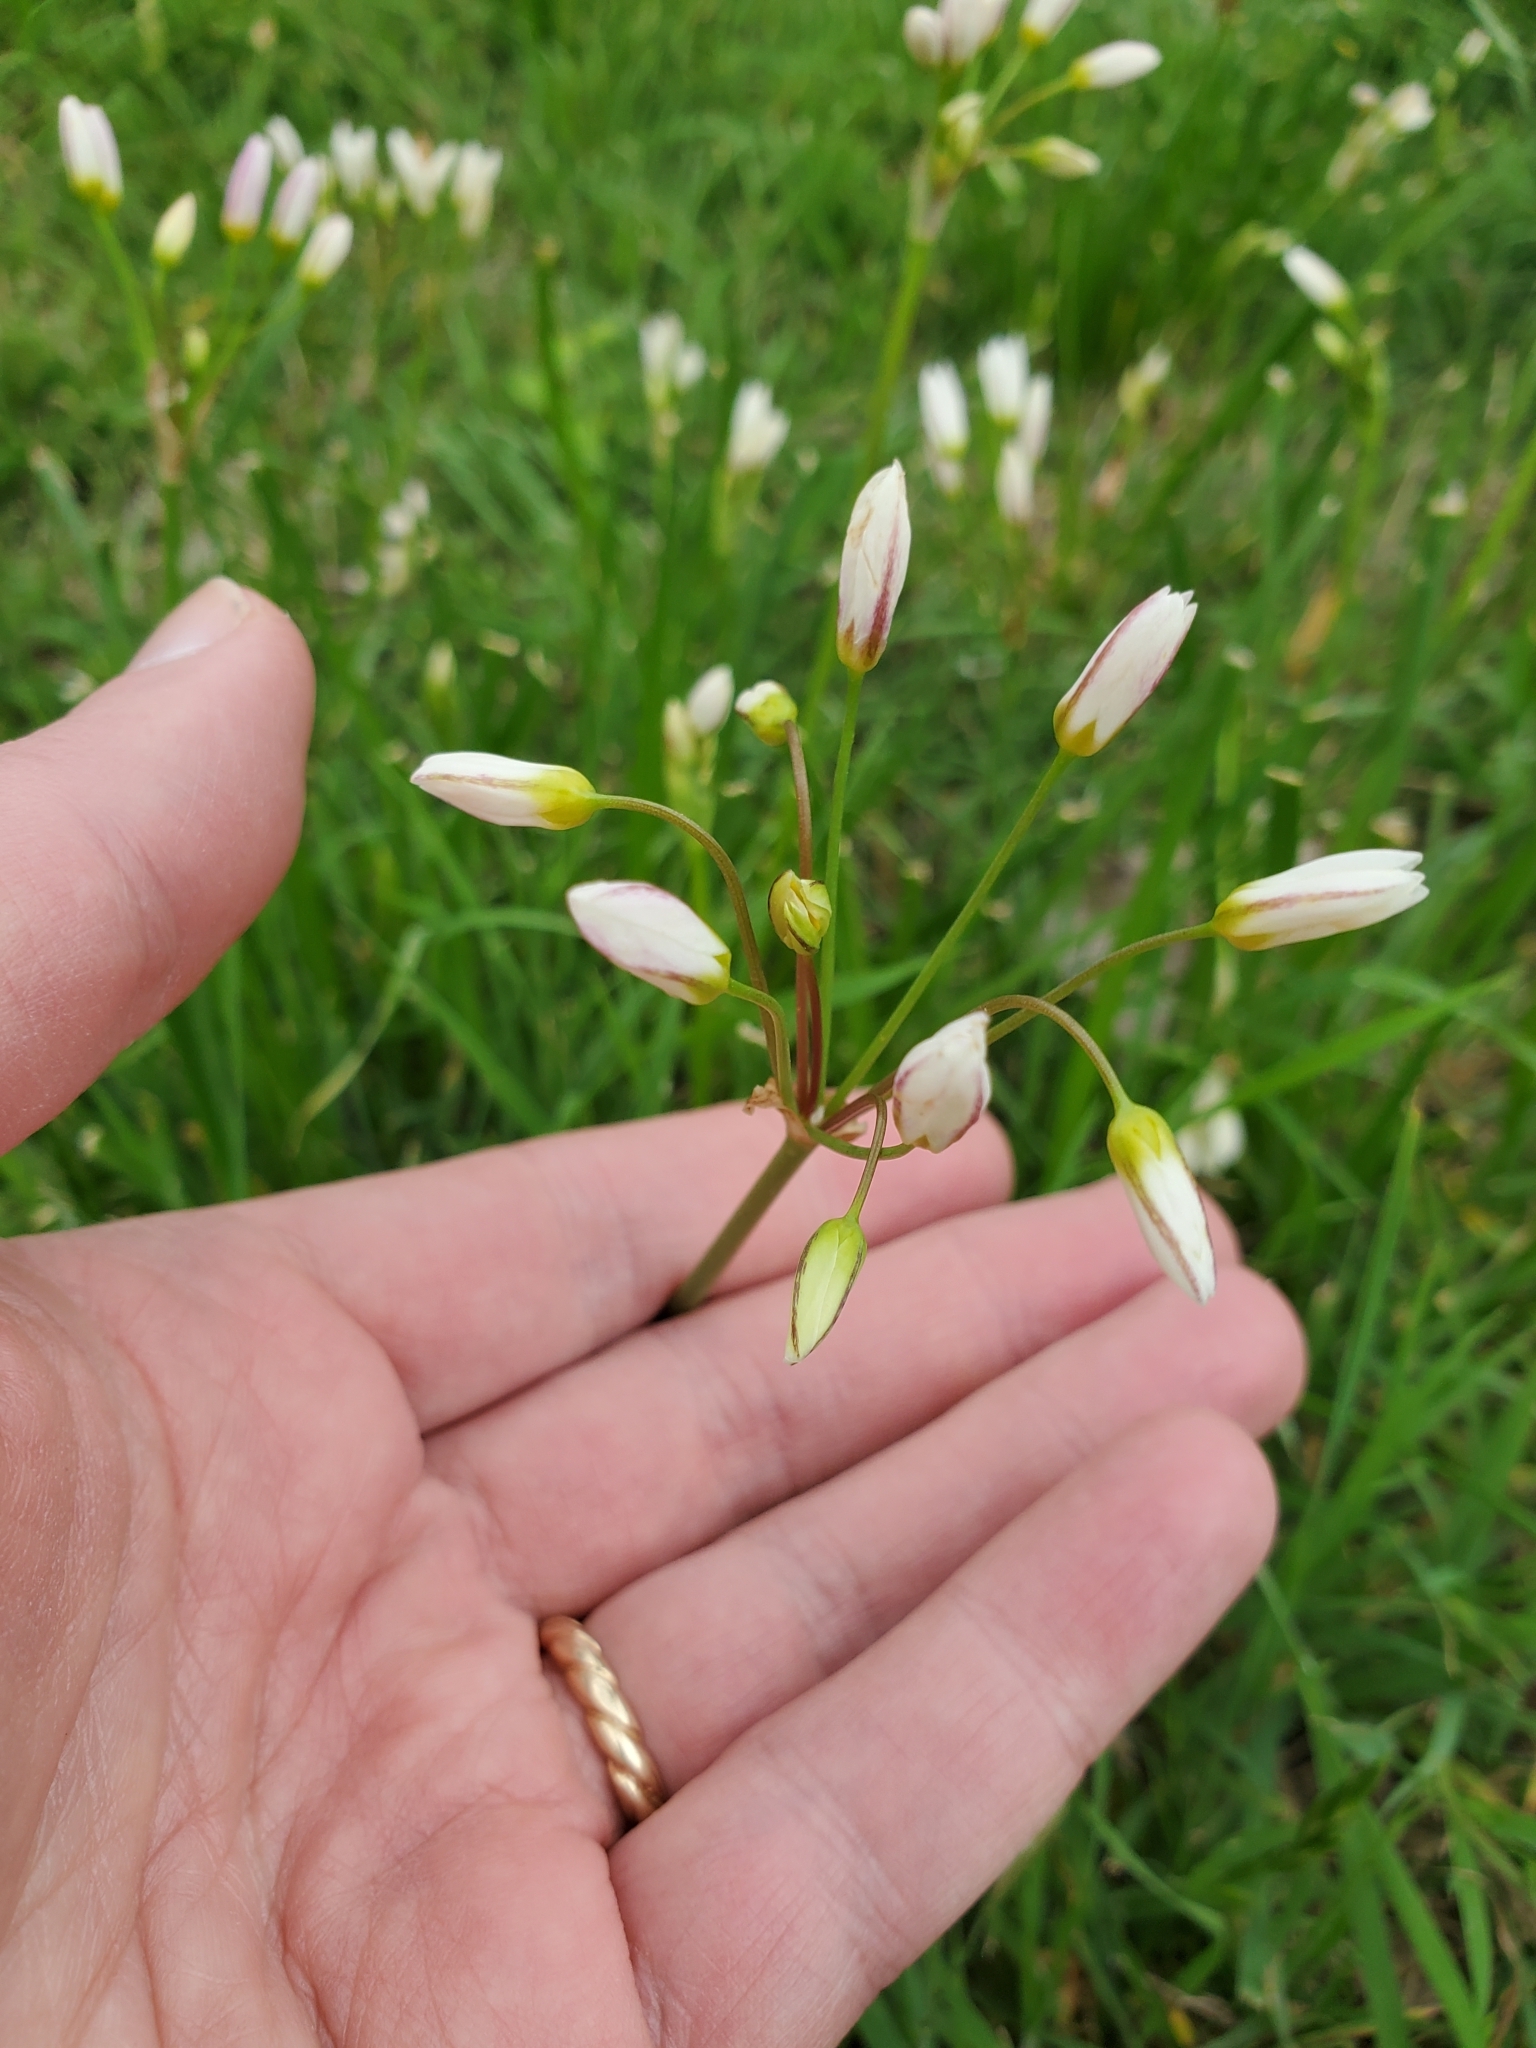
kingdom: Plantae
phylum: Tracheophyta
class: Liliopsida
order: Asparagales
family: Amaryllidaceae
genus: Nothoscordum
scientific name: Nothoscordum bivalve
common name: Crow-poison
